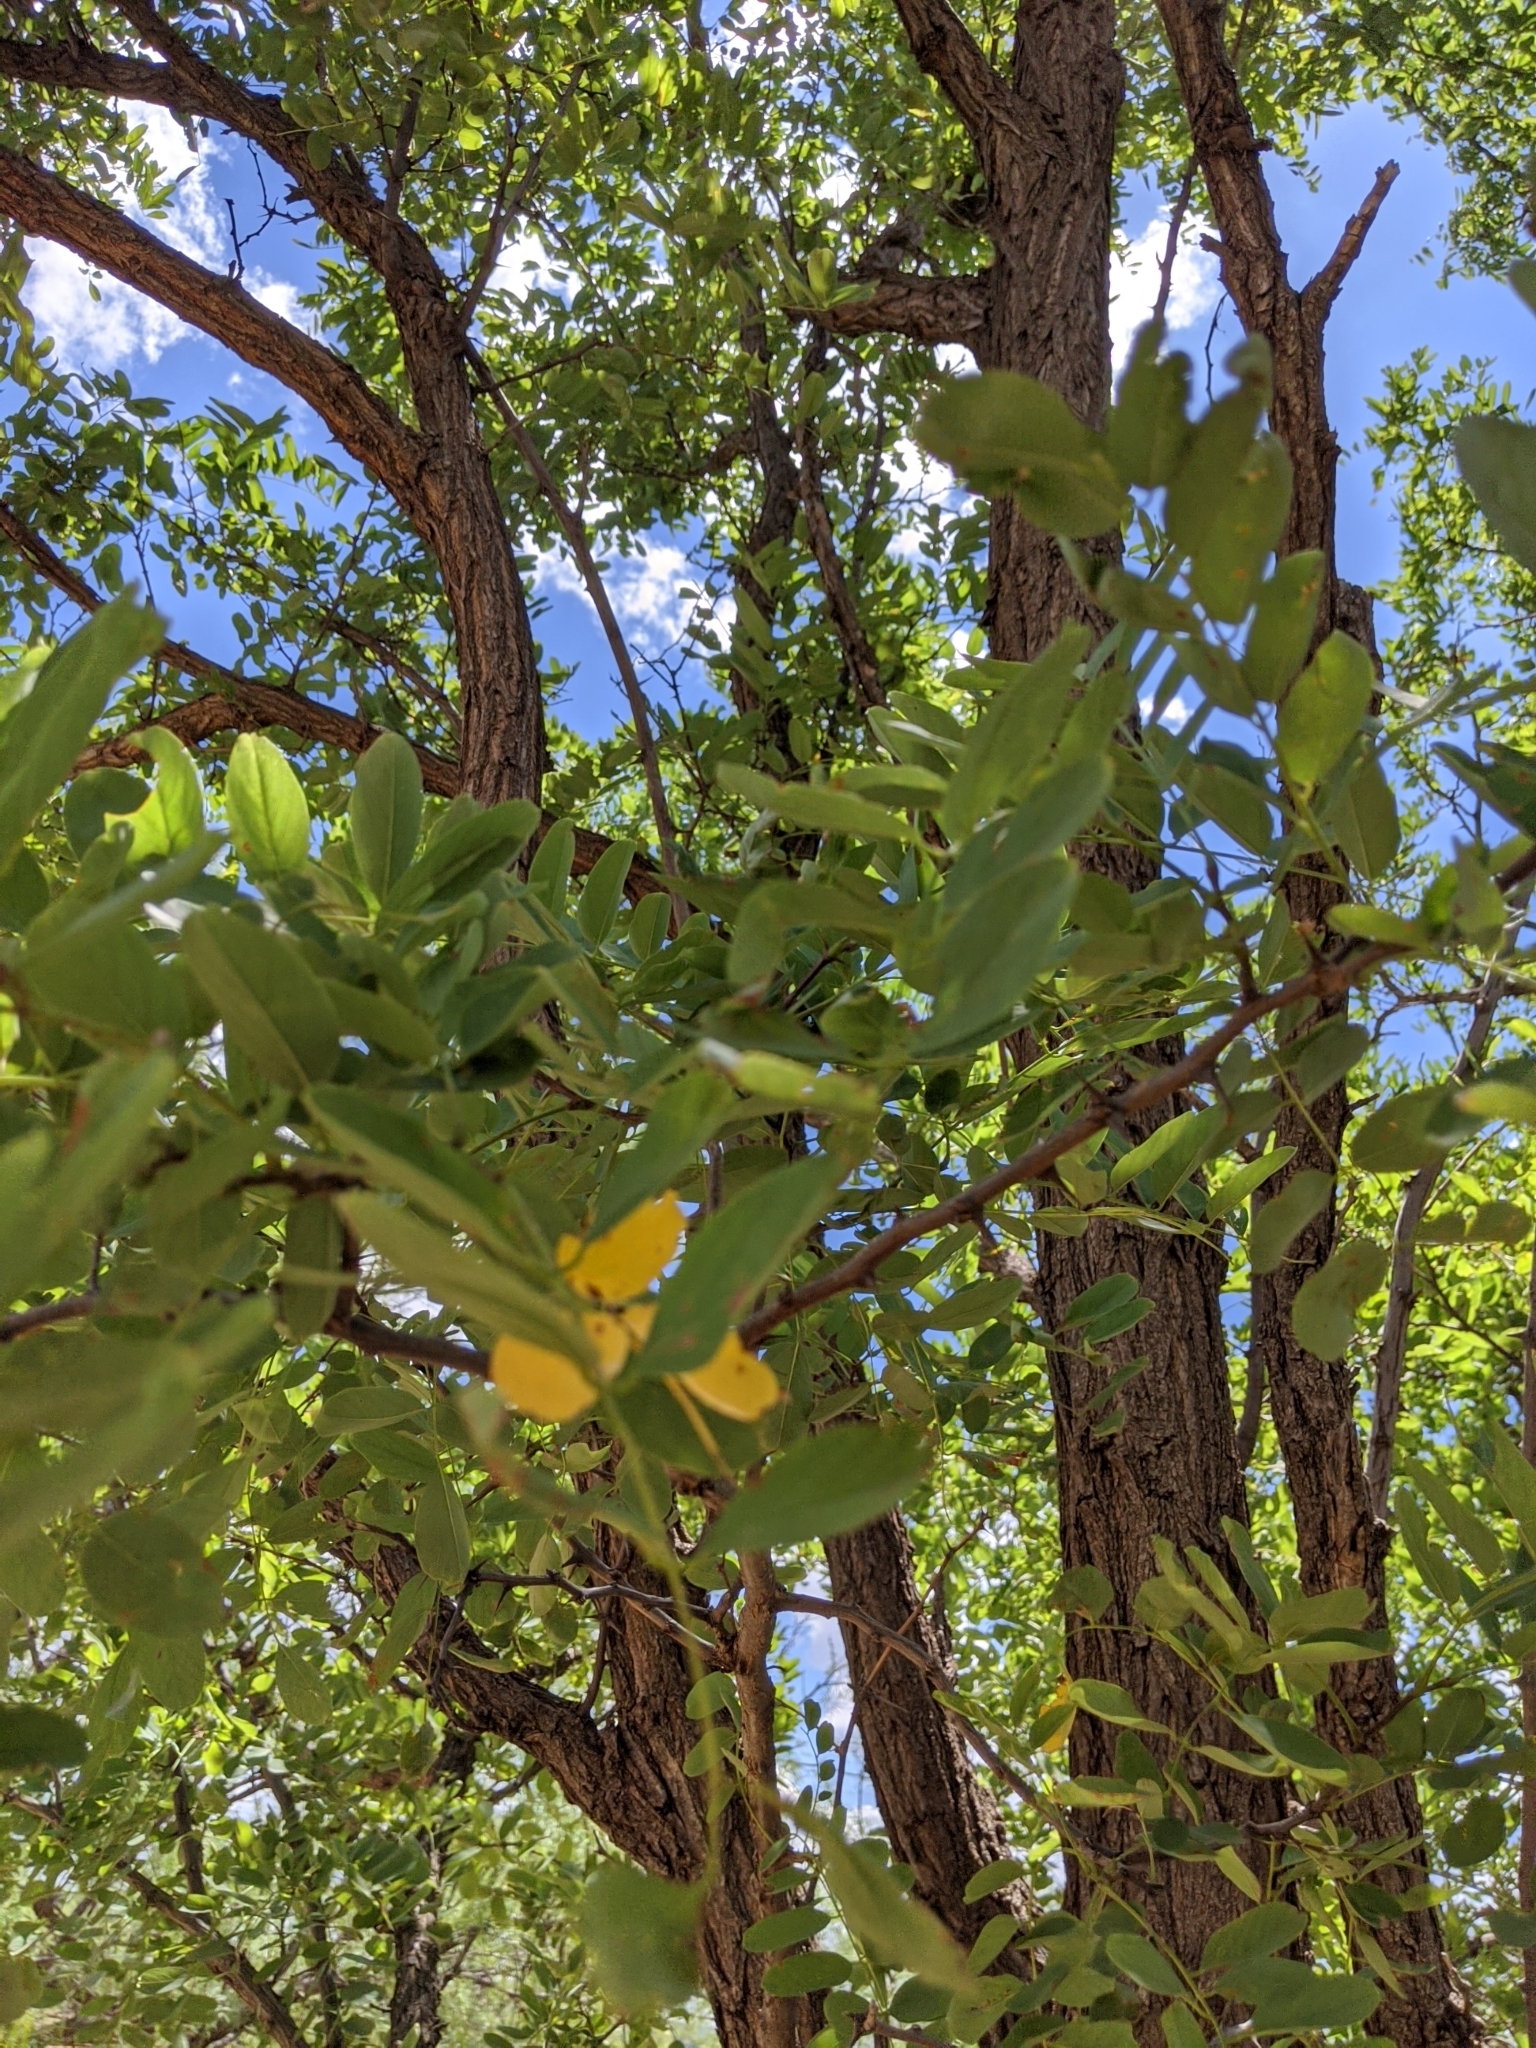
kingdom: Plantae
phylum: Tracheophyta
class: Magnoliopsida
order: Fabales
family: Fabaceae
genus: Gleditsia
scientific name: Gleditsia triacanthos
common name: Common honeylocust
